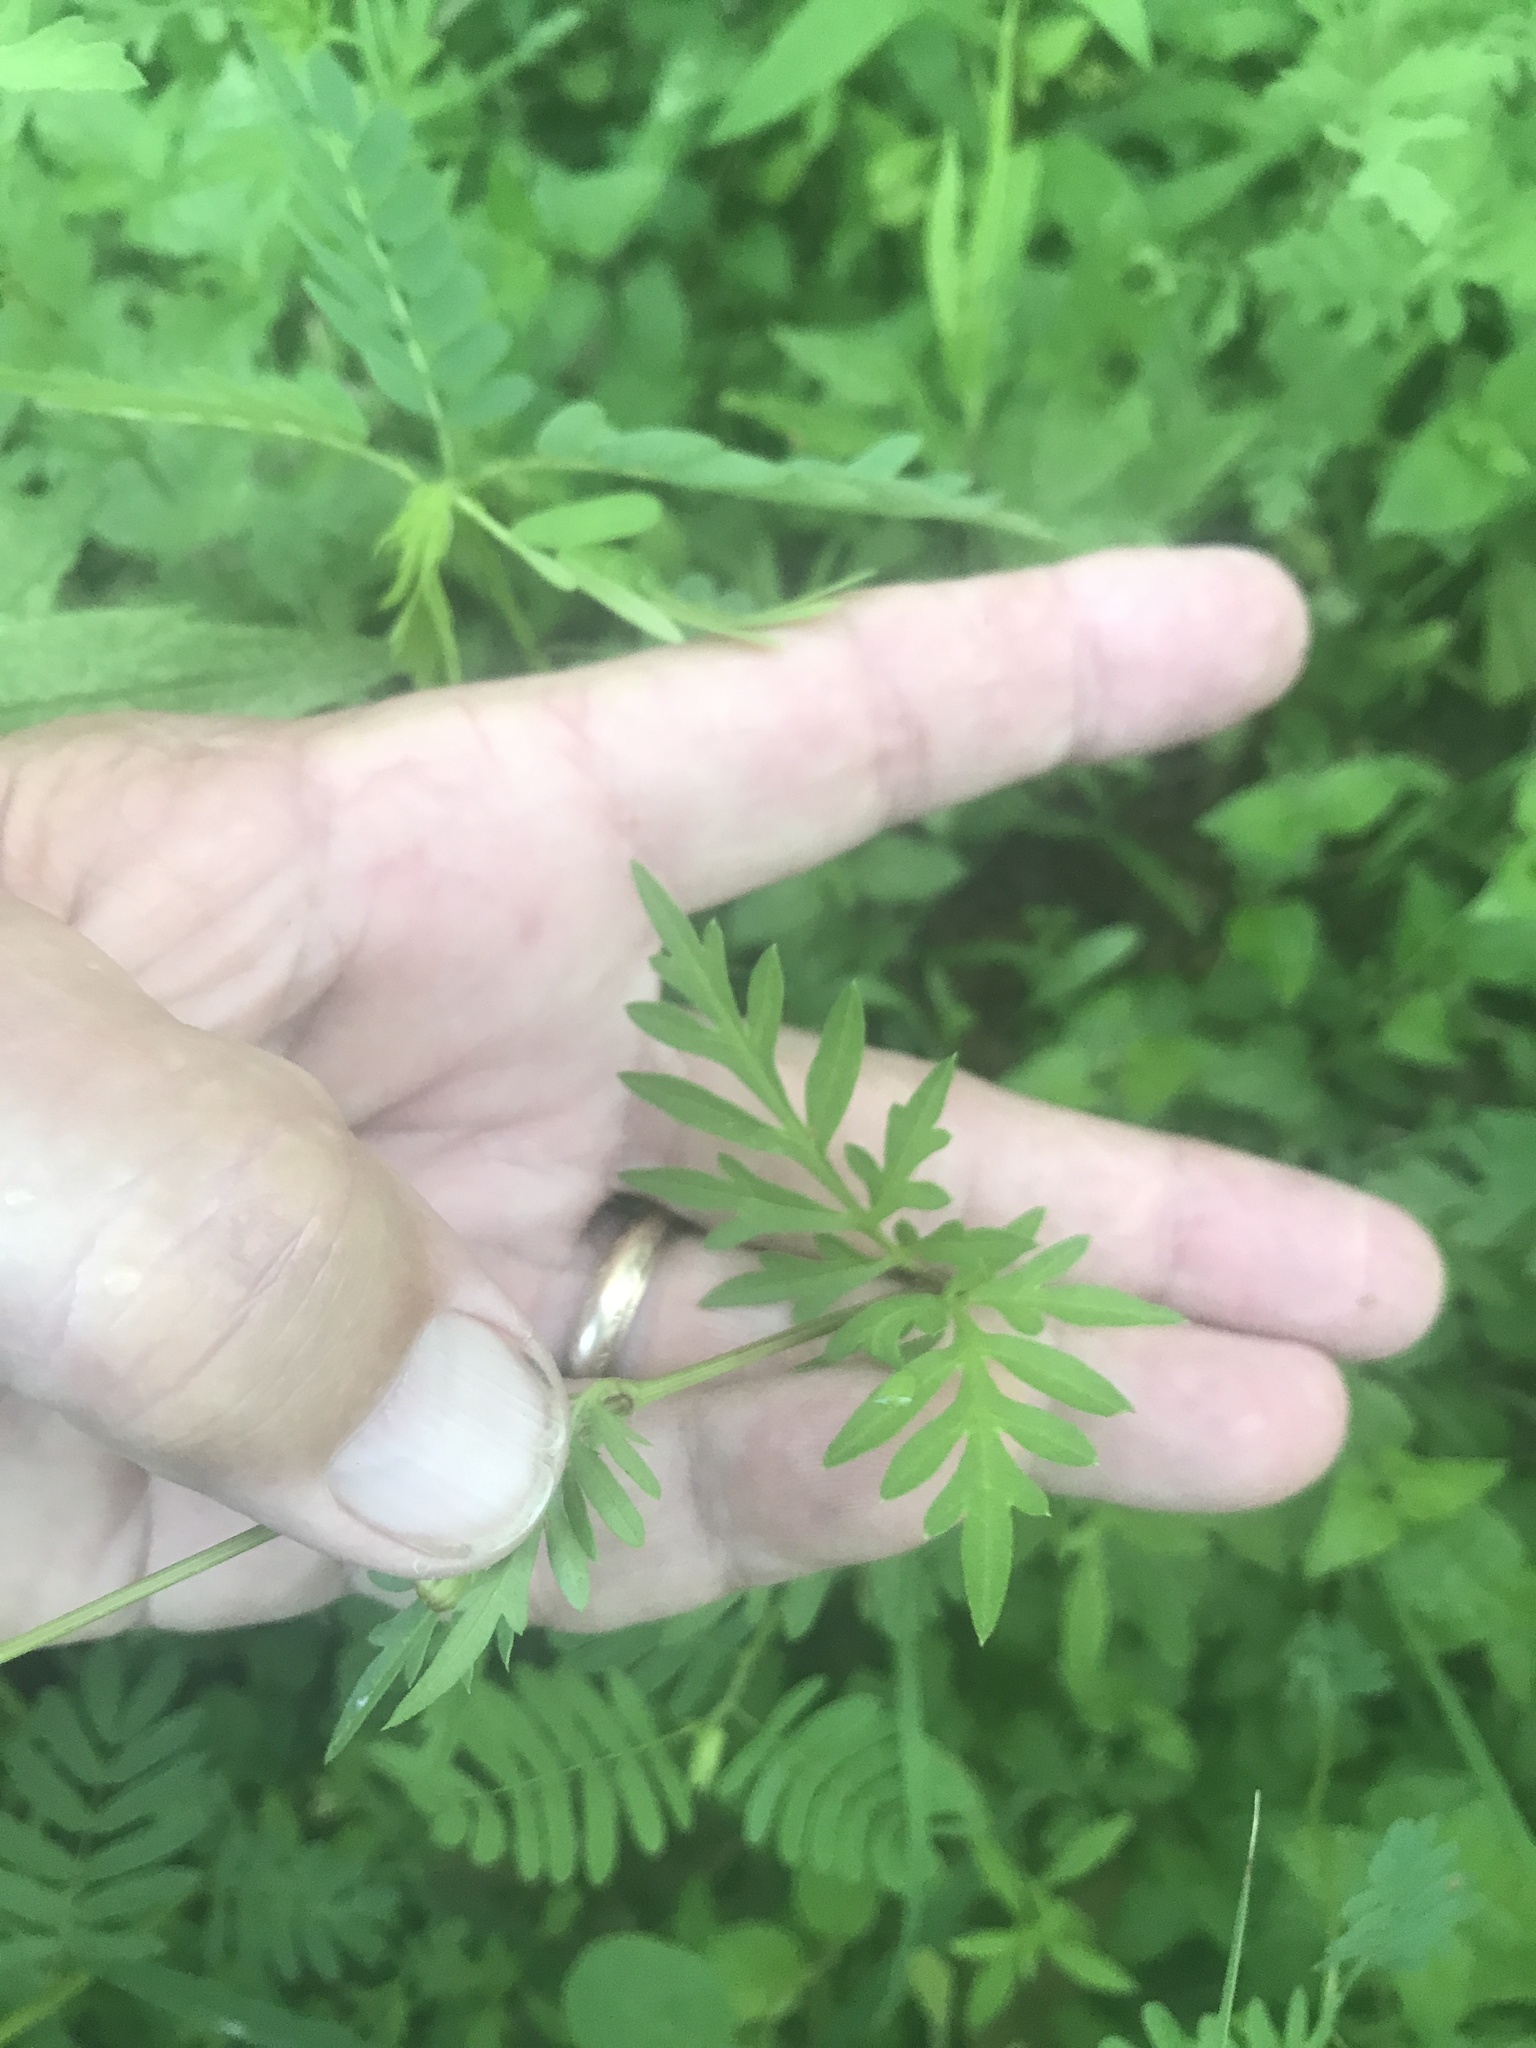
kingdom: Plantae
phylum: Tracheophyta
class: Magnoliopsida
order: Asterales
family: Asteraceae
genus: Cosmos
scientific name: Cosmos sulphureus
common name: Sulphur cosmos
